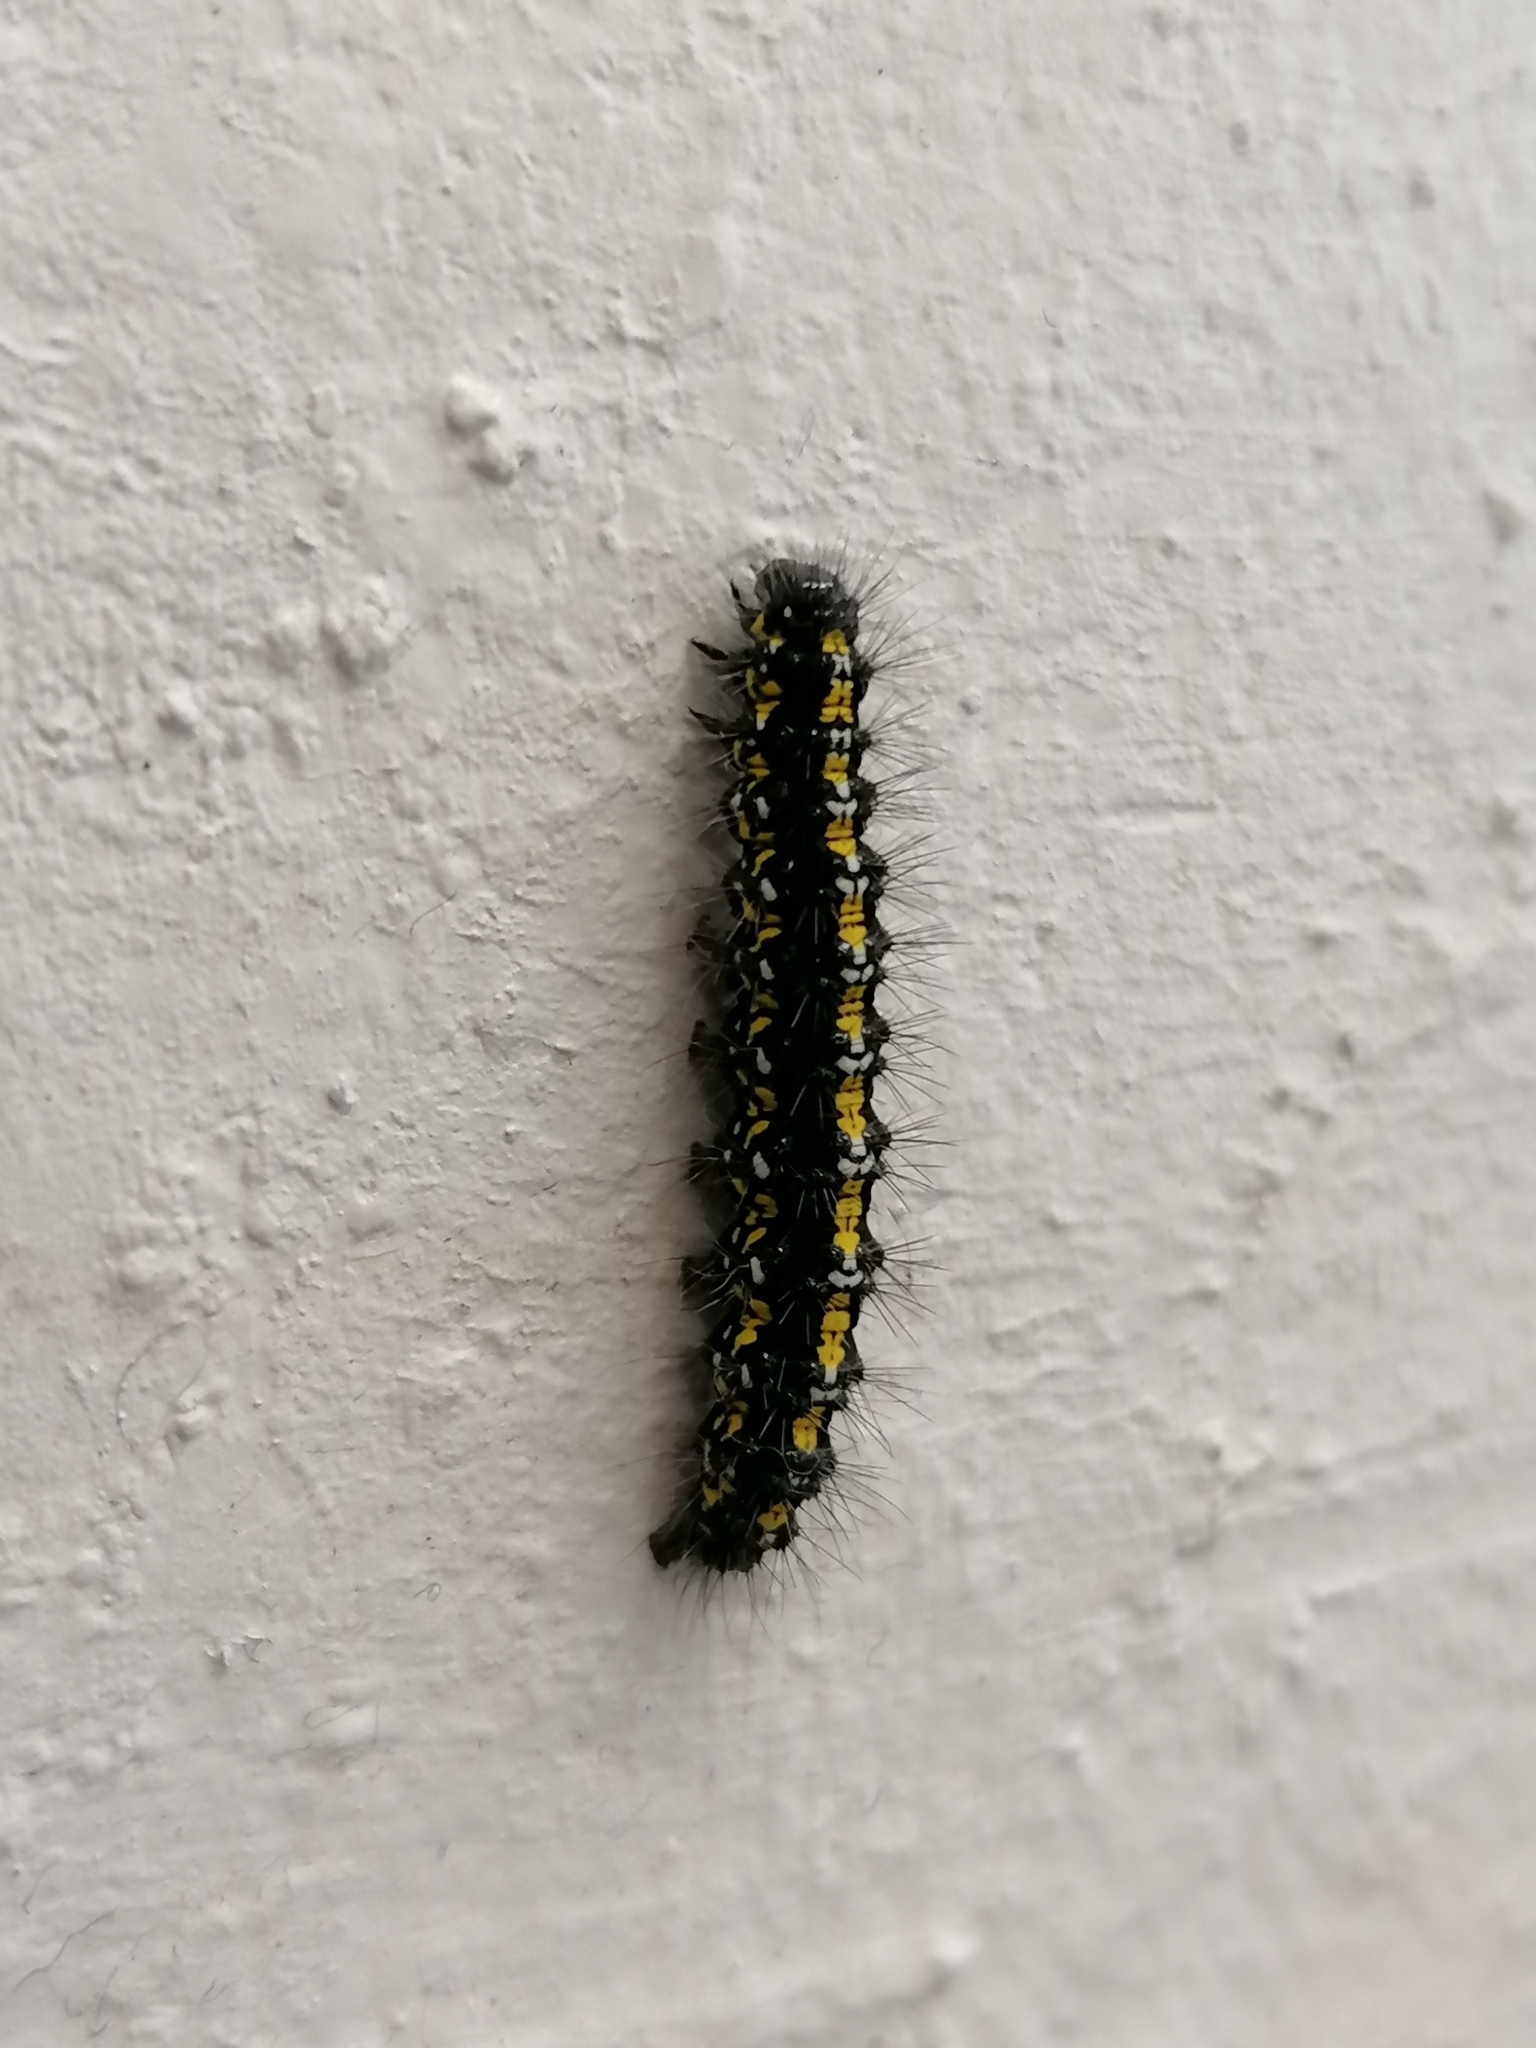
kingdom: Animalia
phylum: Arthropoda
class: Insecta
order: Lepidoptera
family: Erebidae
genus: Callimorpha
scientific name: Callimorpha dominula
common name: Scarlet tiger
